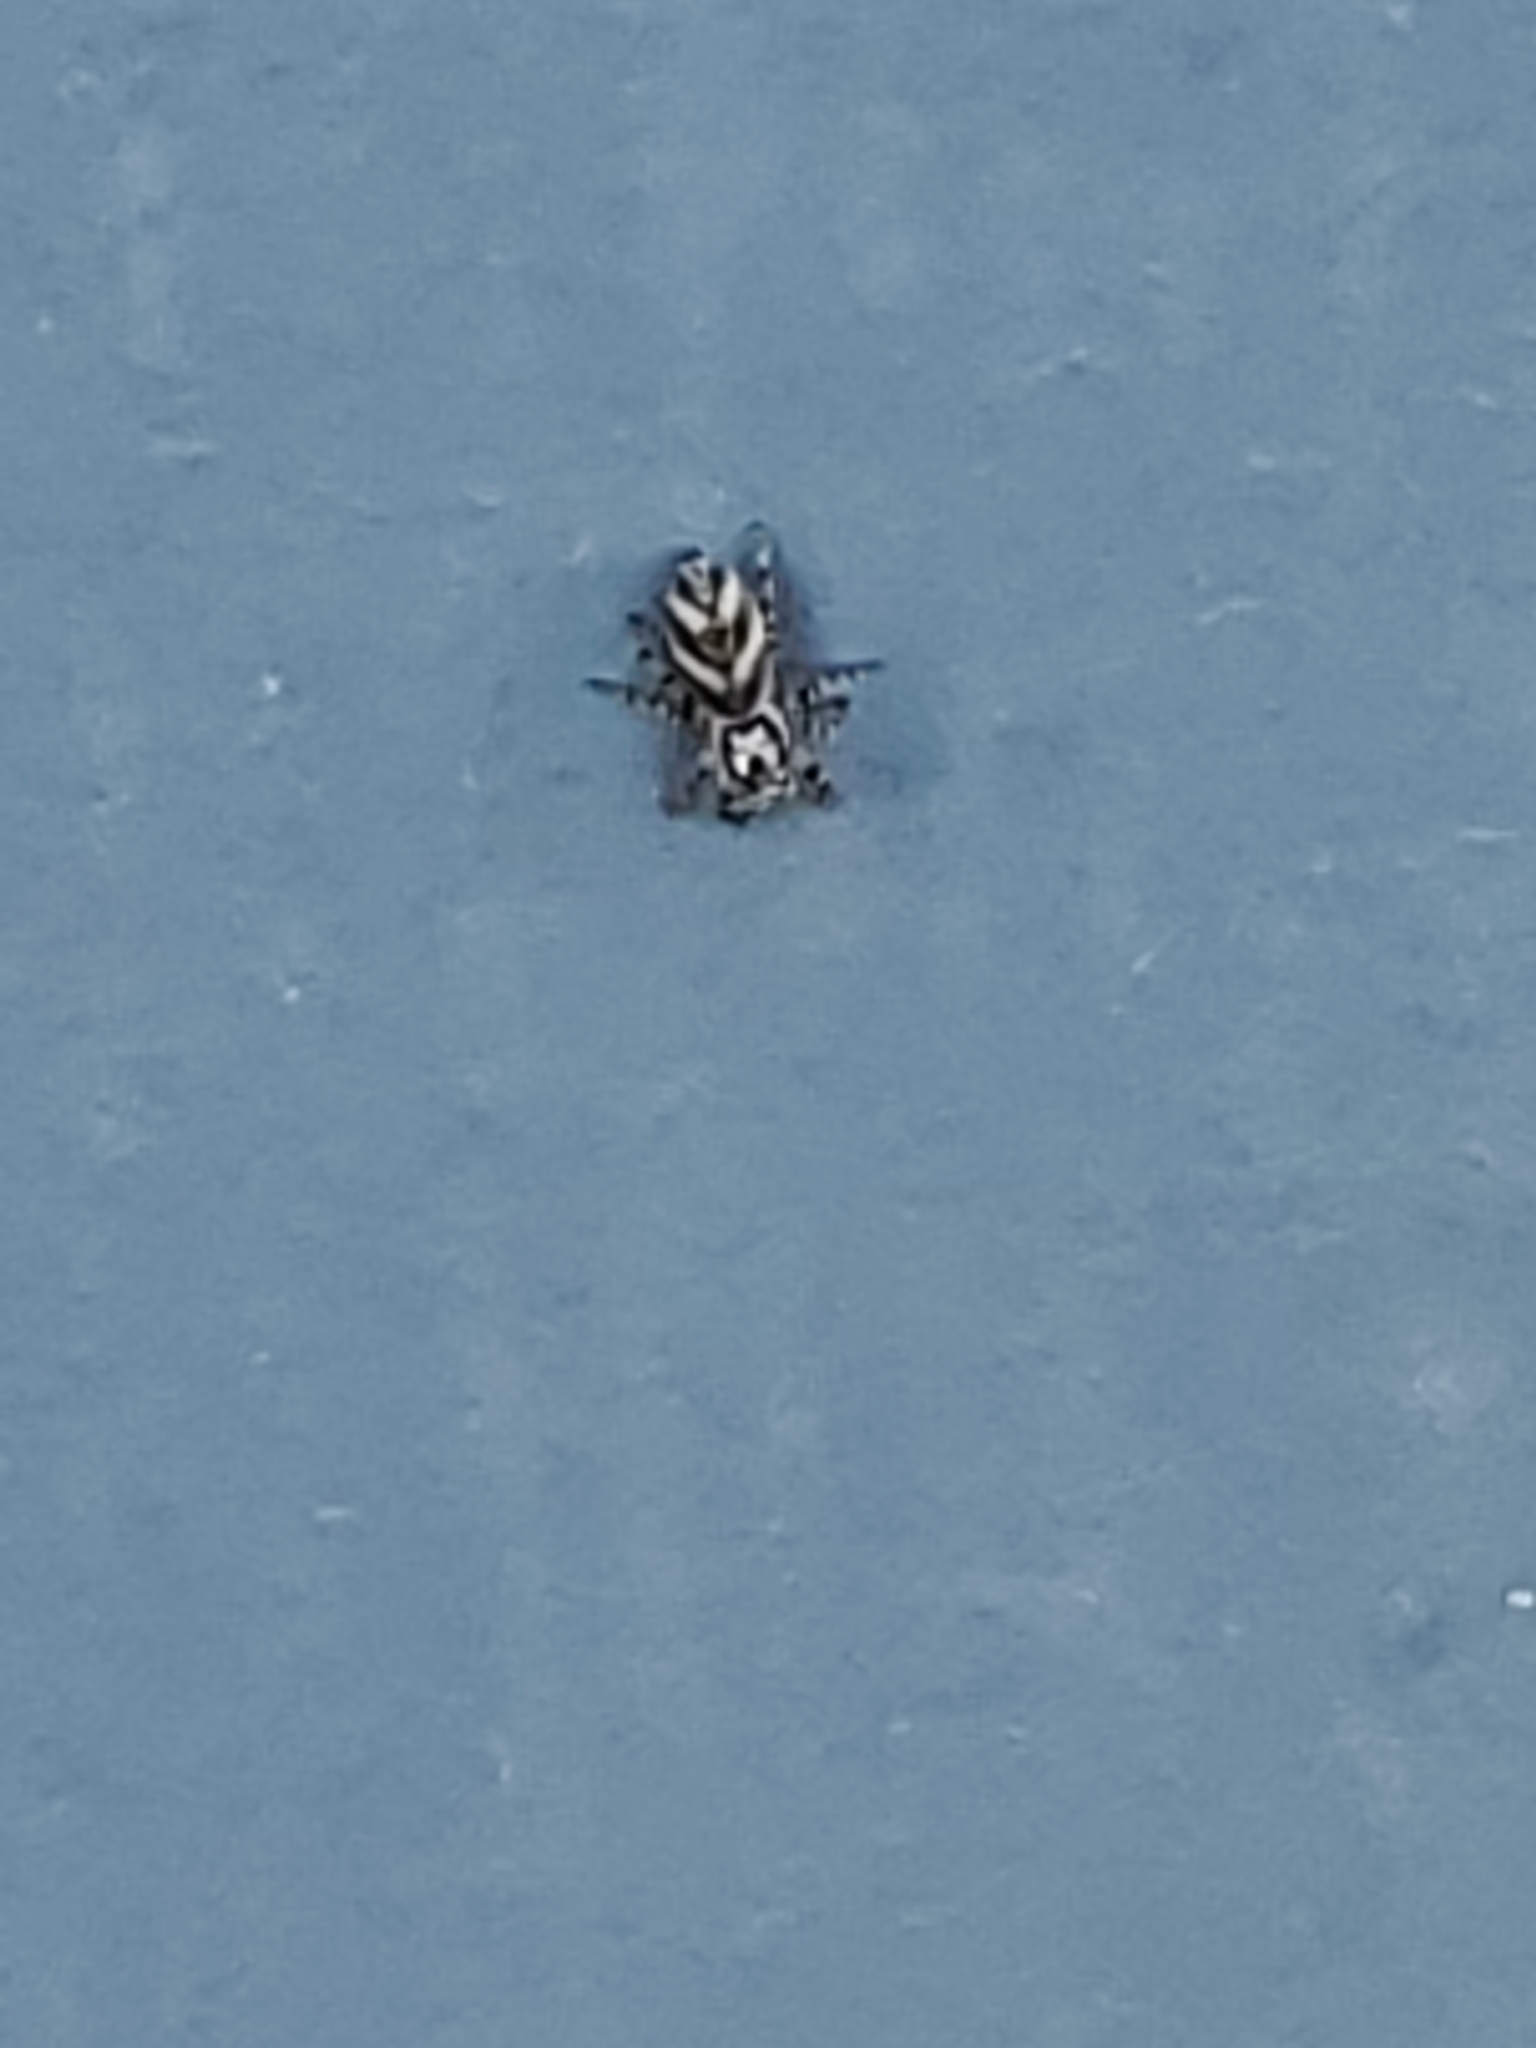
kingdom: Animalia
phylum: Arthropoda
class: Arachnida
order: Araneae
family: Salticidae
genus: Salticus
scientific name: Salticus scenicus
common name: Zebra jumper
